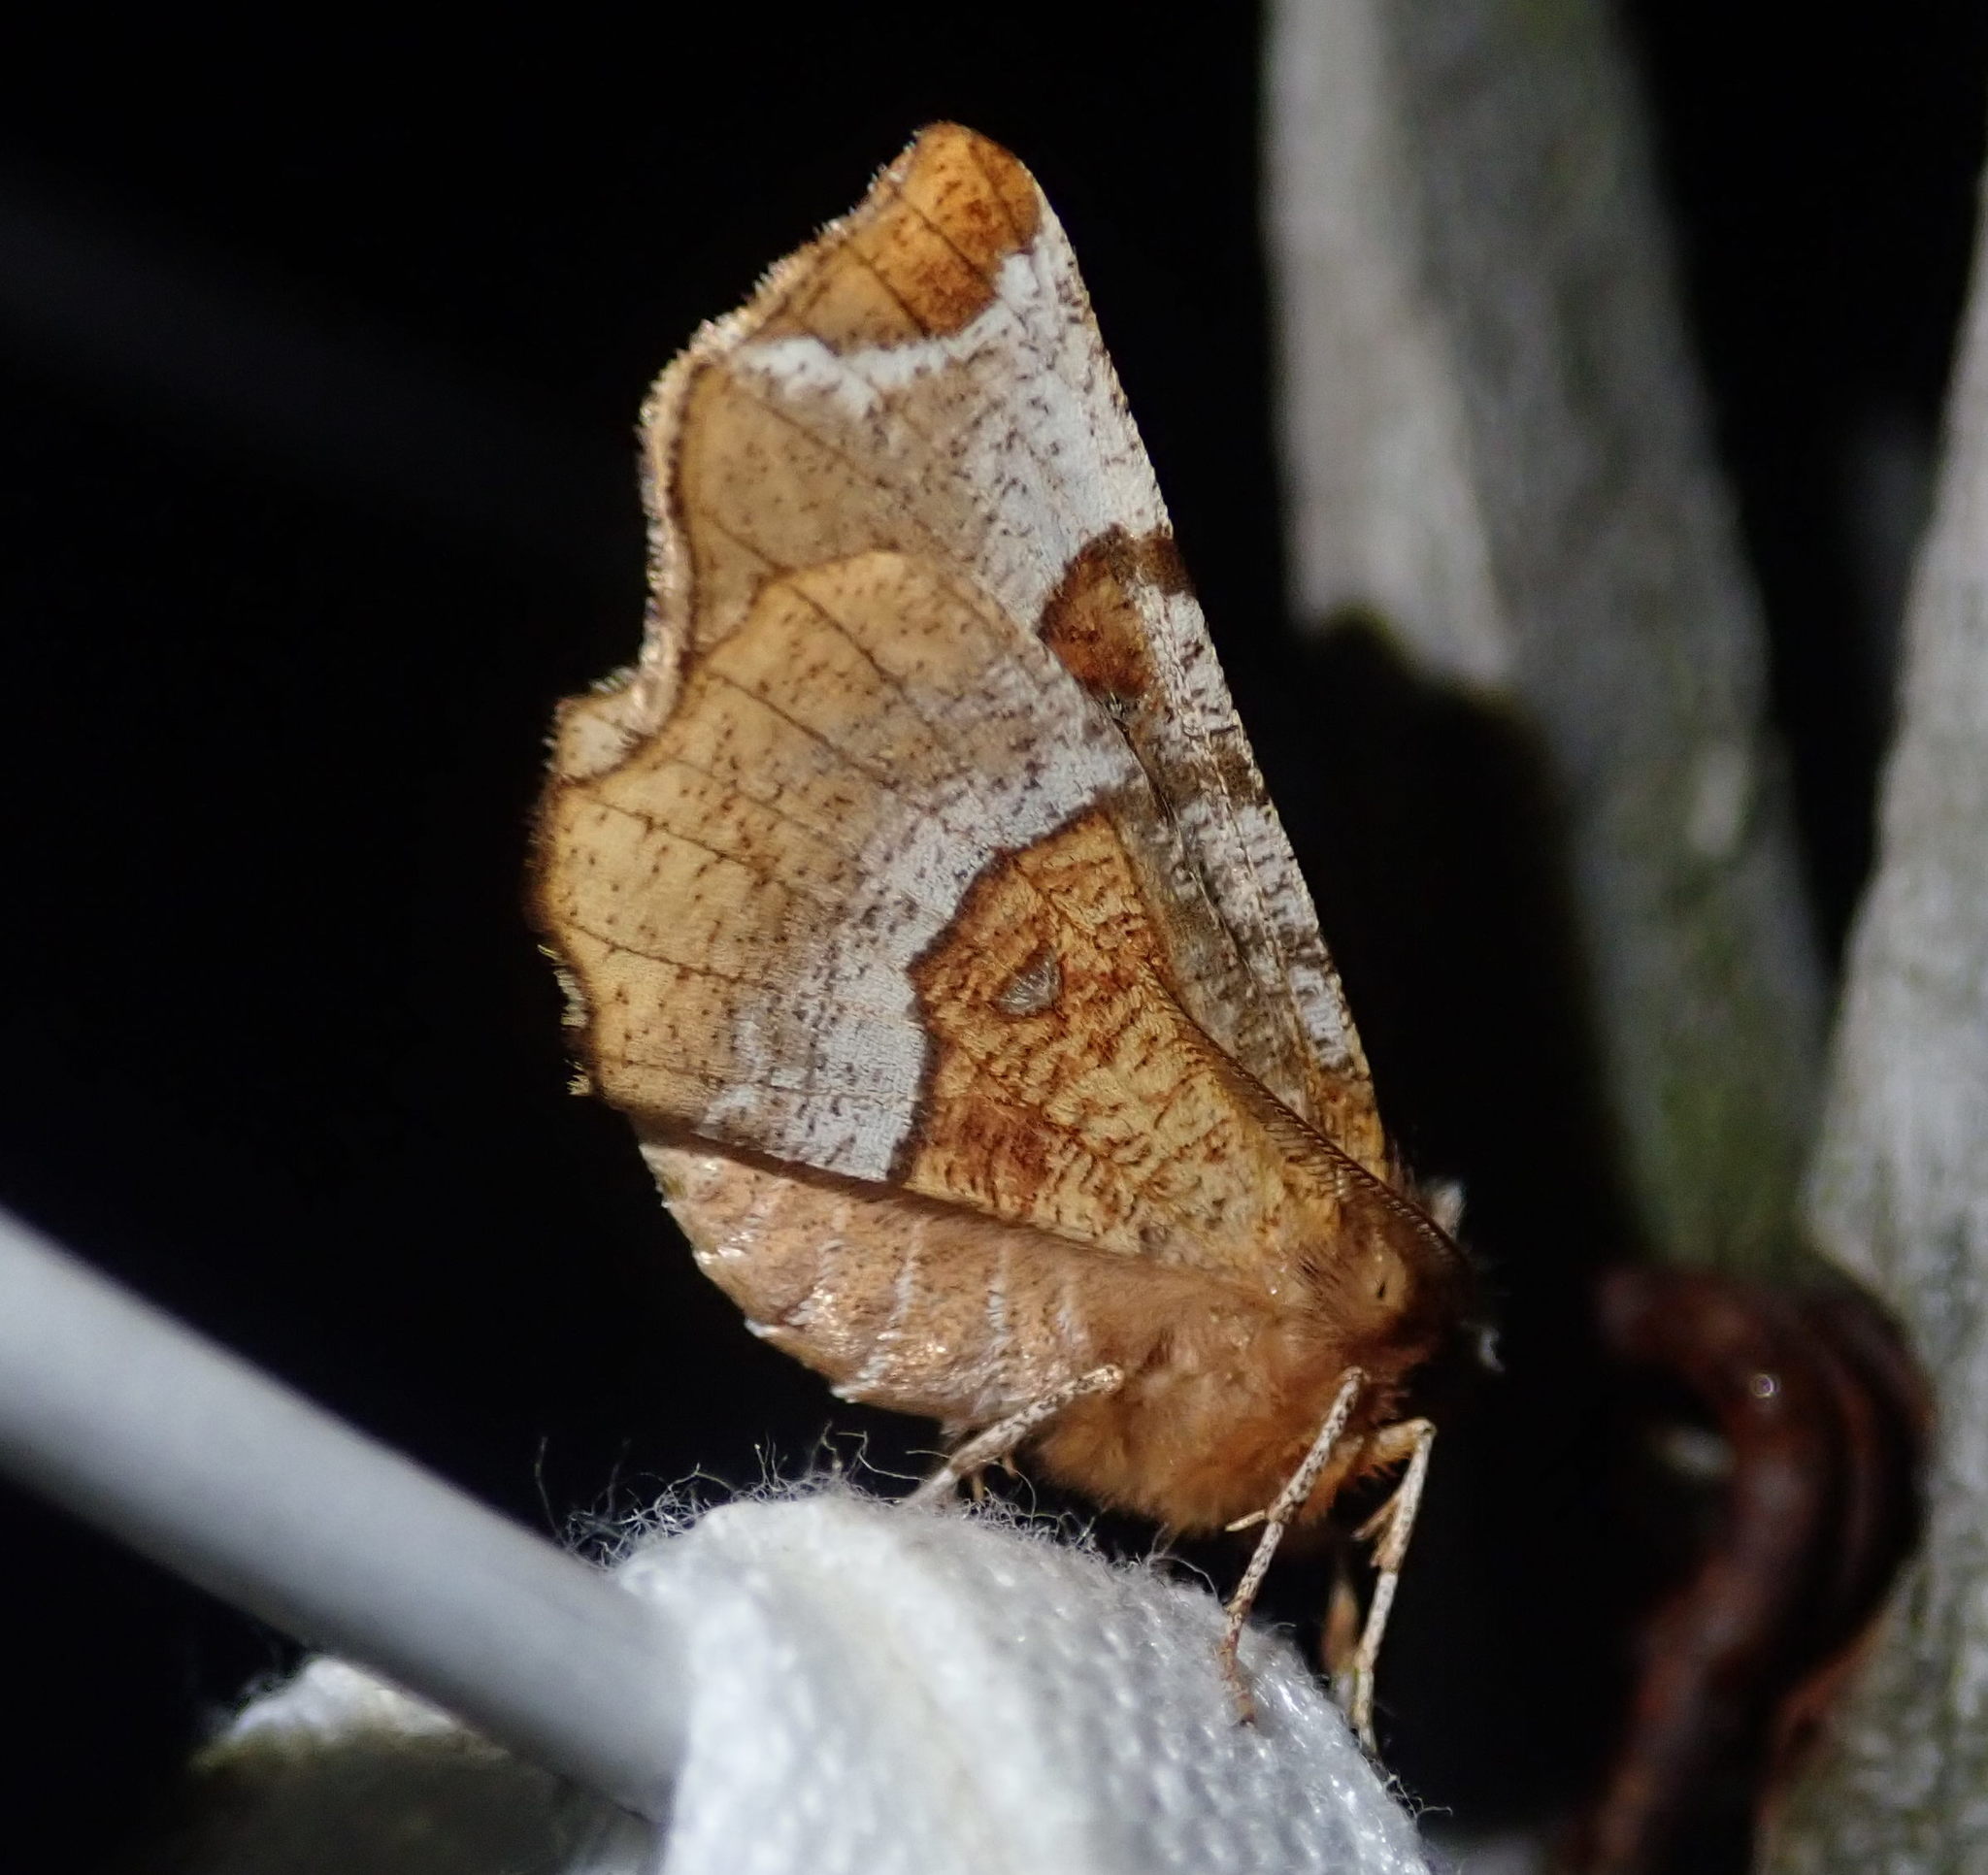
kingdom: Animalia
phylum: Arthropoda
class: Insecta
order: Lepidoptera
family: Geometridae
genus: Selenia
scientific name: Selenia tetralunaria
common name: Purple thorn
